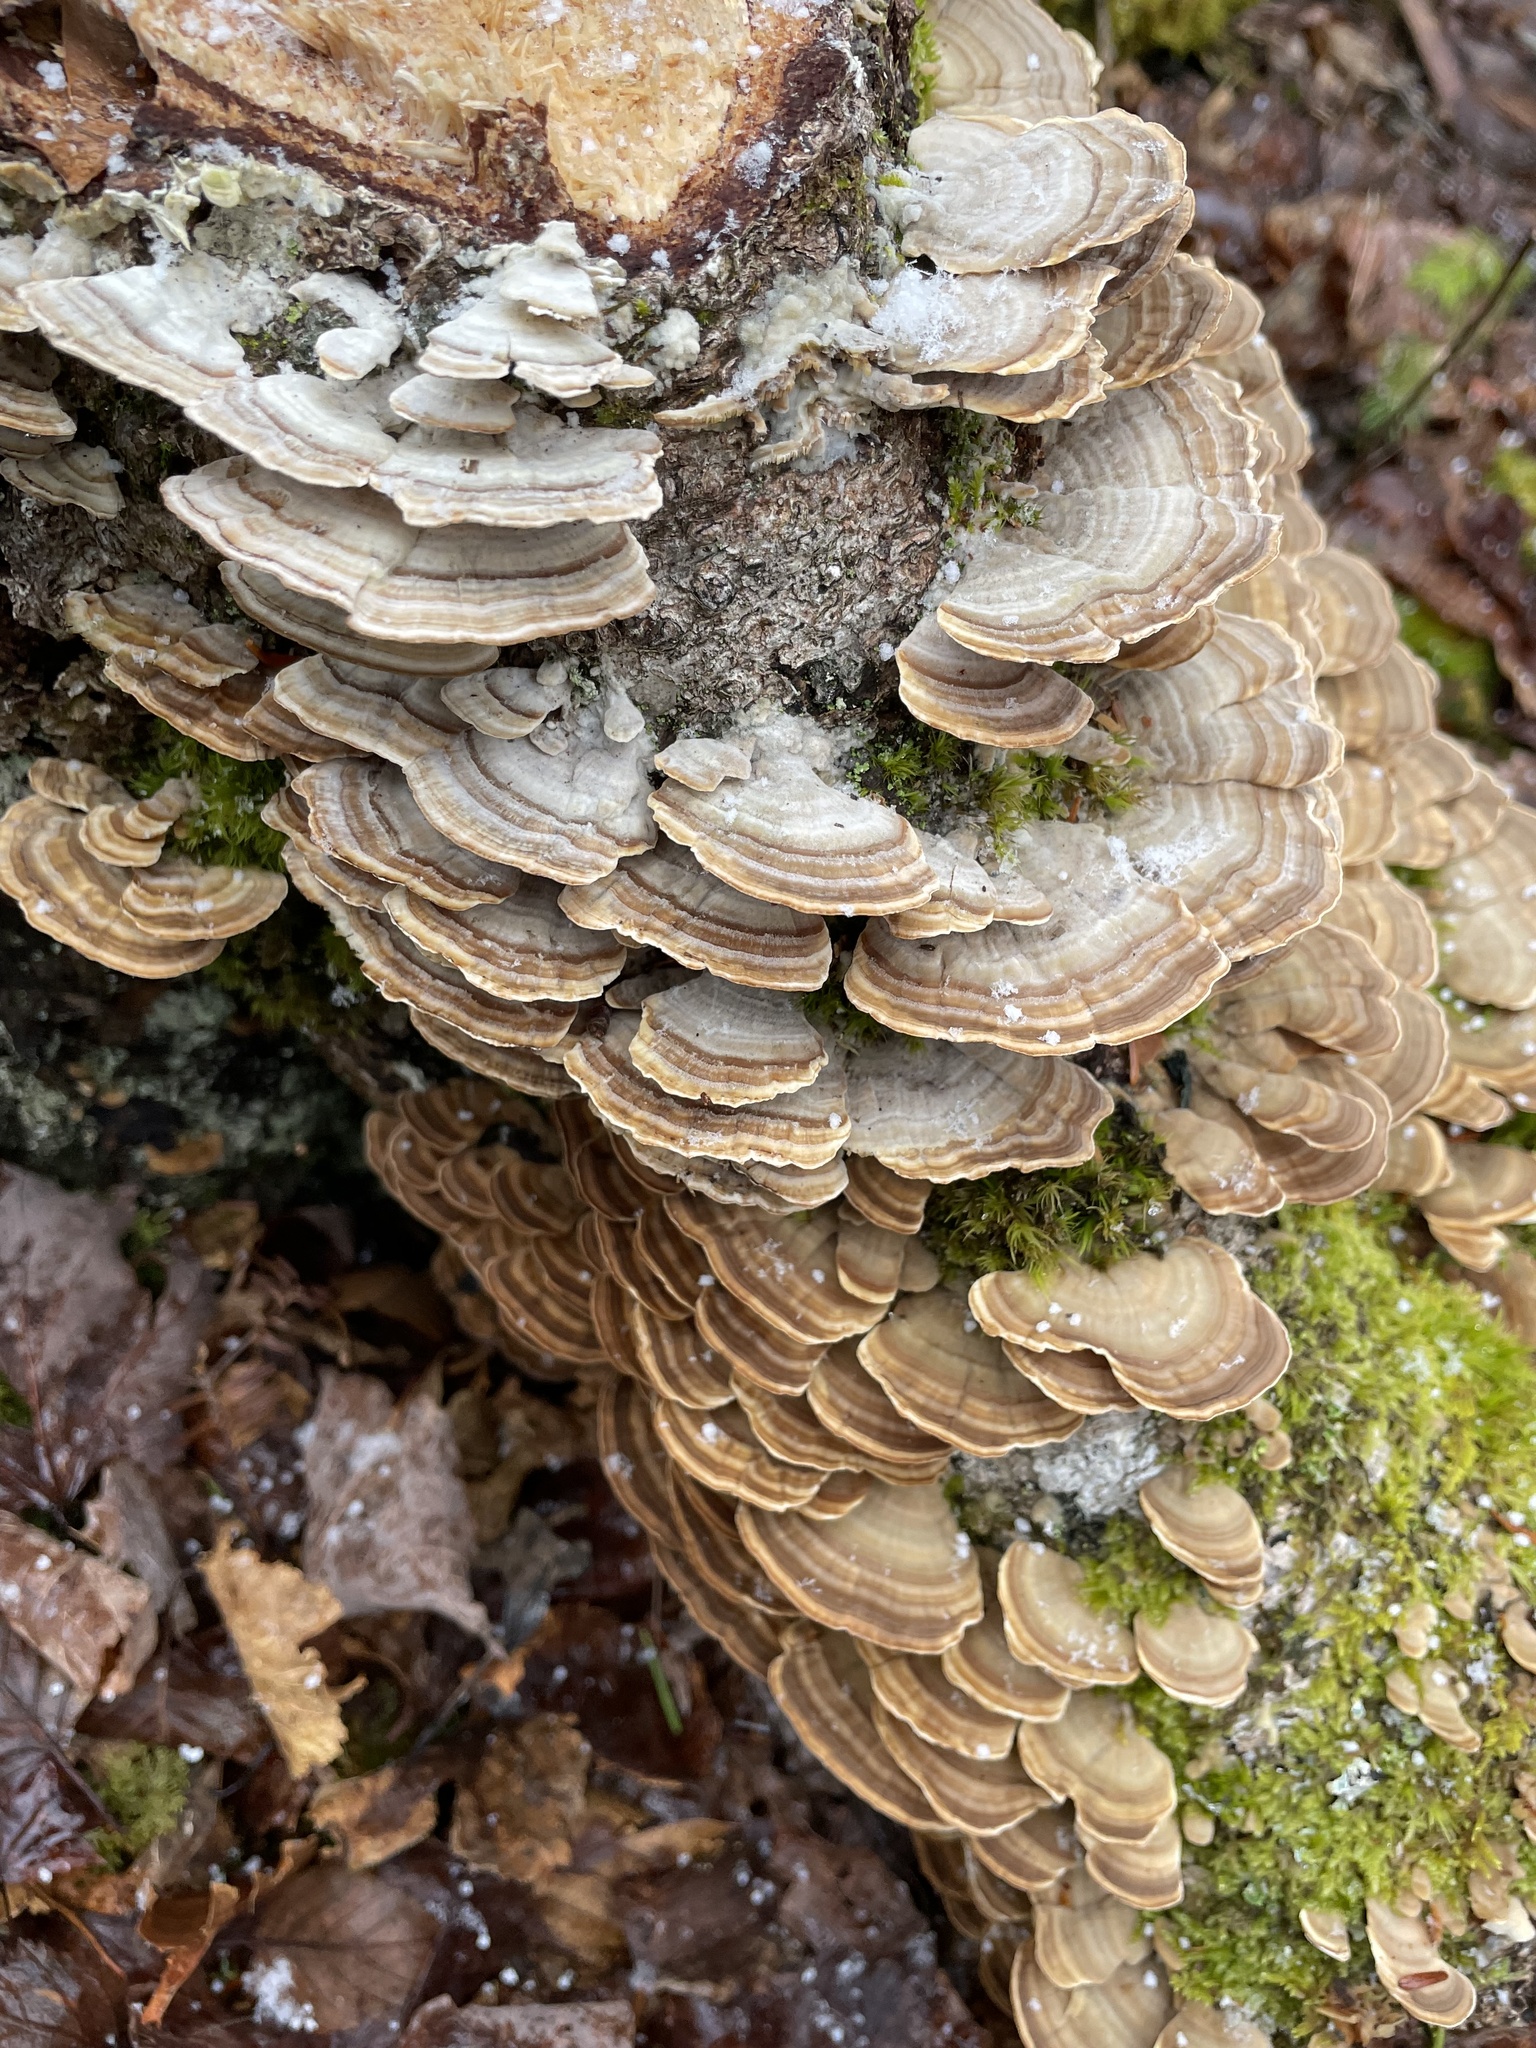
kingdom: Fungi
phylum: Basidiomycota
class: Agaricomycetes
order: Polyporales
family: Polyporaceae
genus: Trametes
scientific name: Trametes versicolor
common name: Turkeytail
